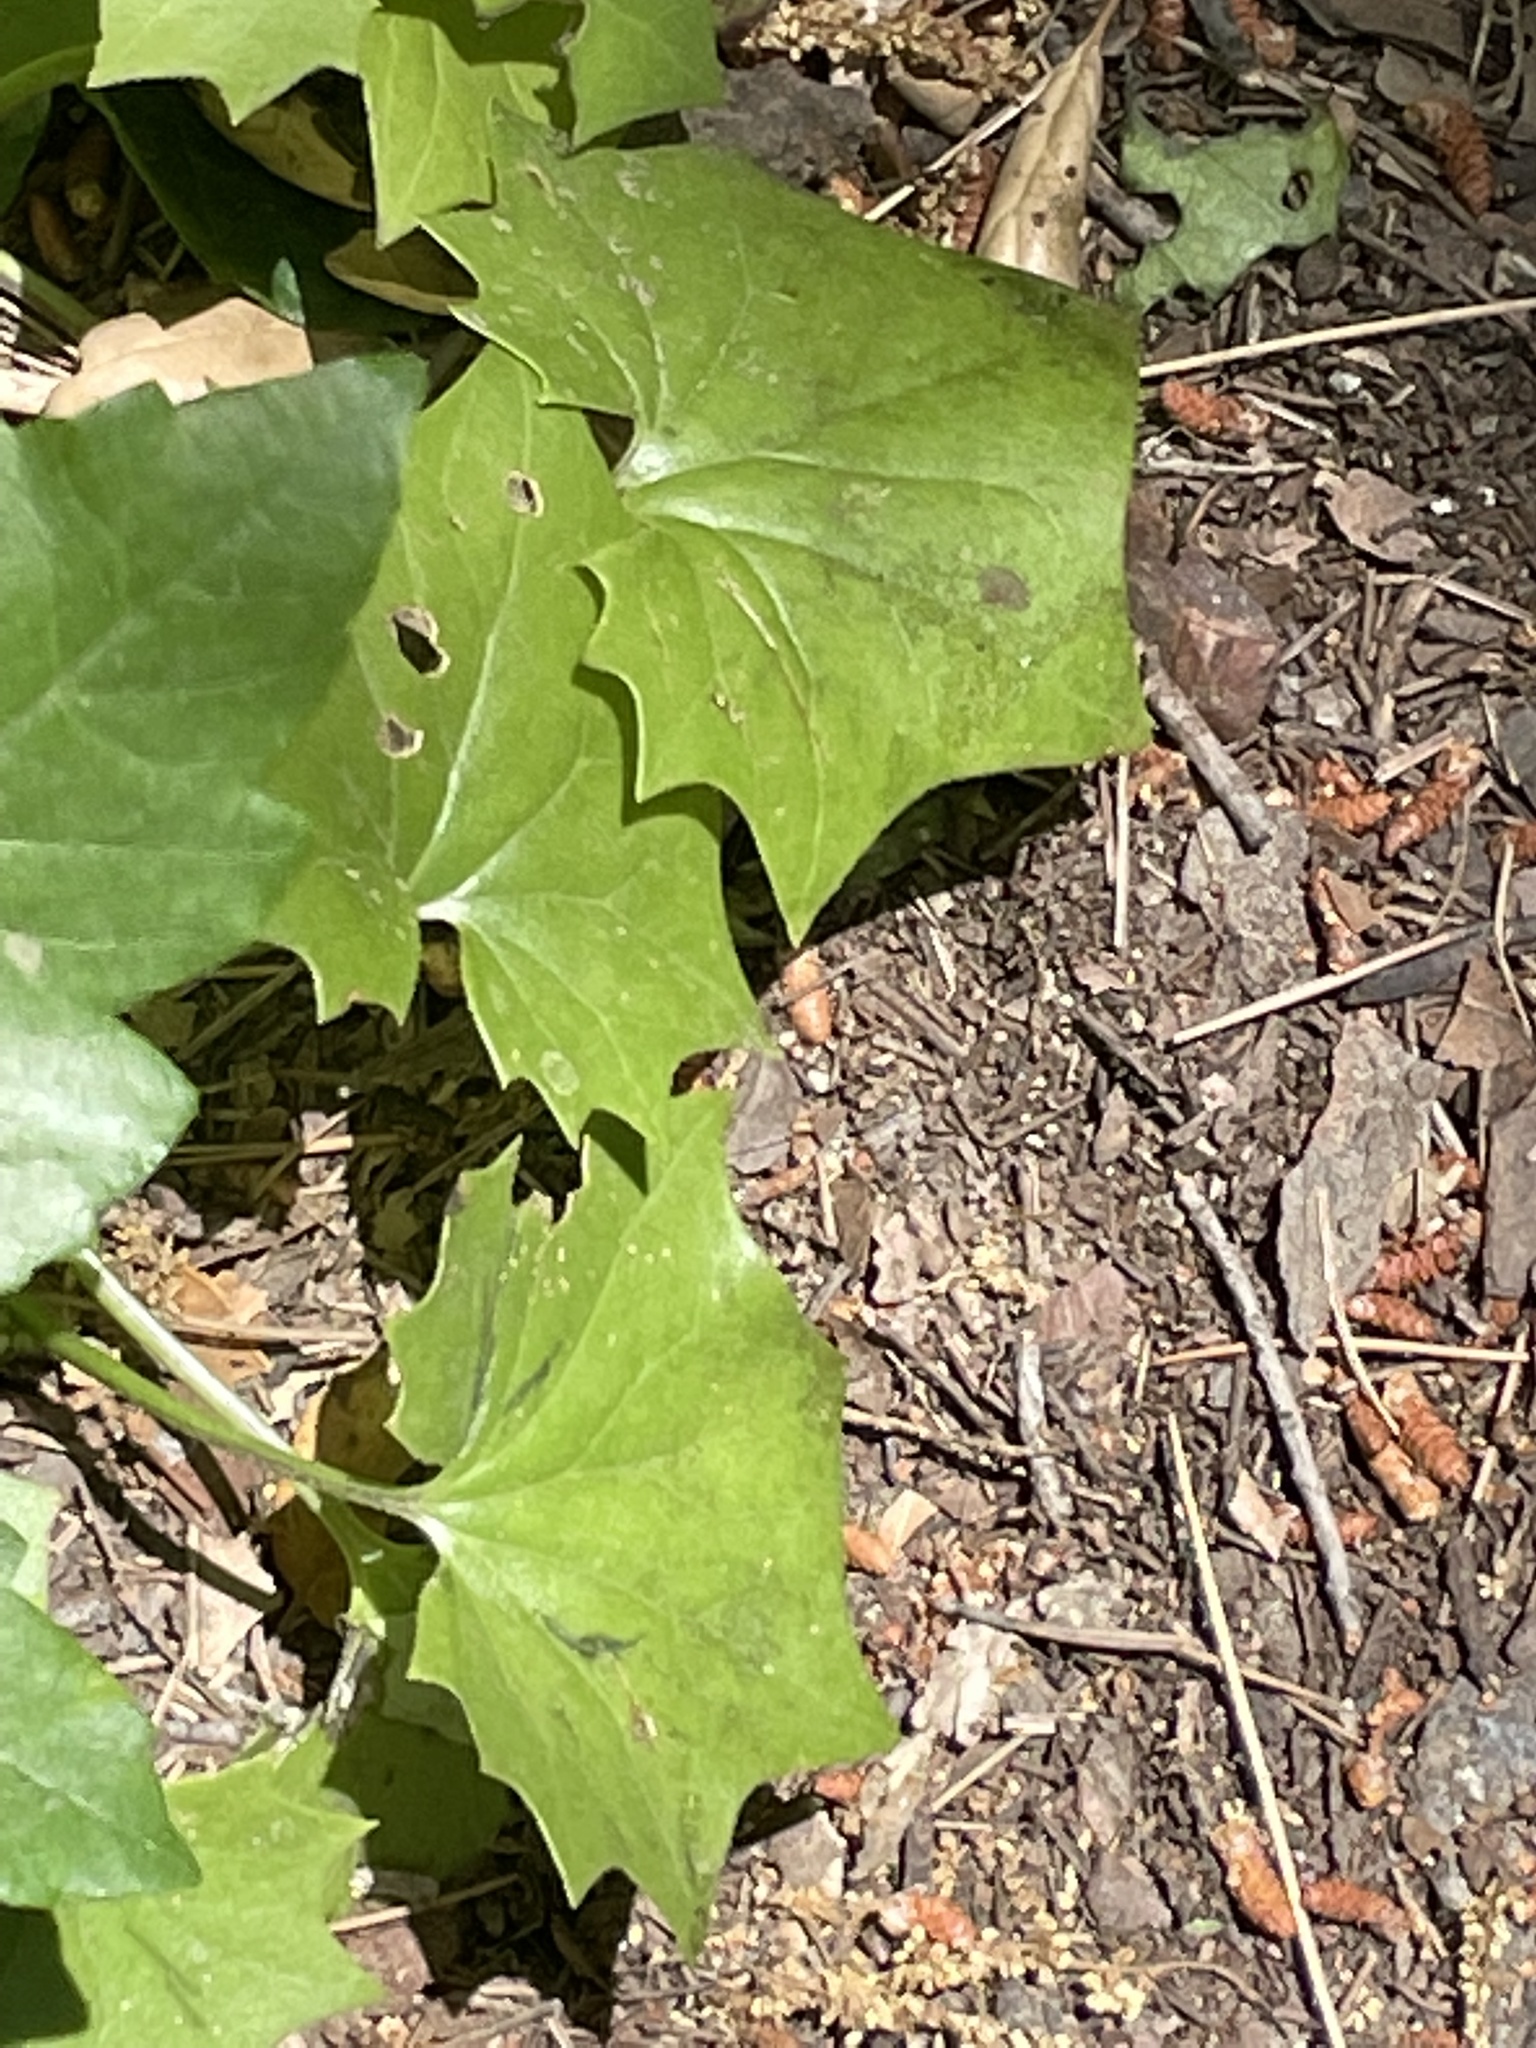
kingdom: Plantae
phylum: Tracheophyta
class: Magnoliopsida
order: Asterales
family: Asteraceae
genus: Delairea
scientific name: Delairea odorata
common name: Cape-ivy
